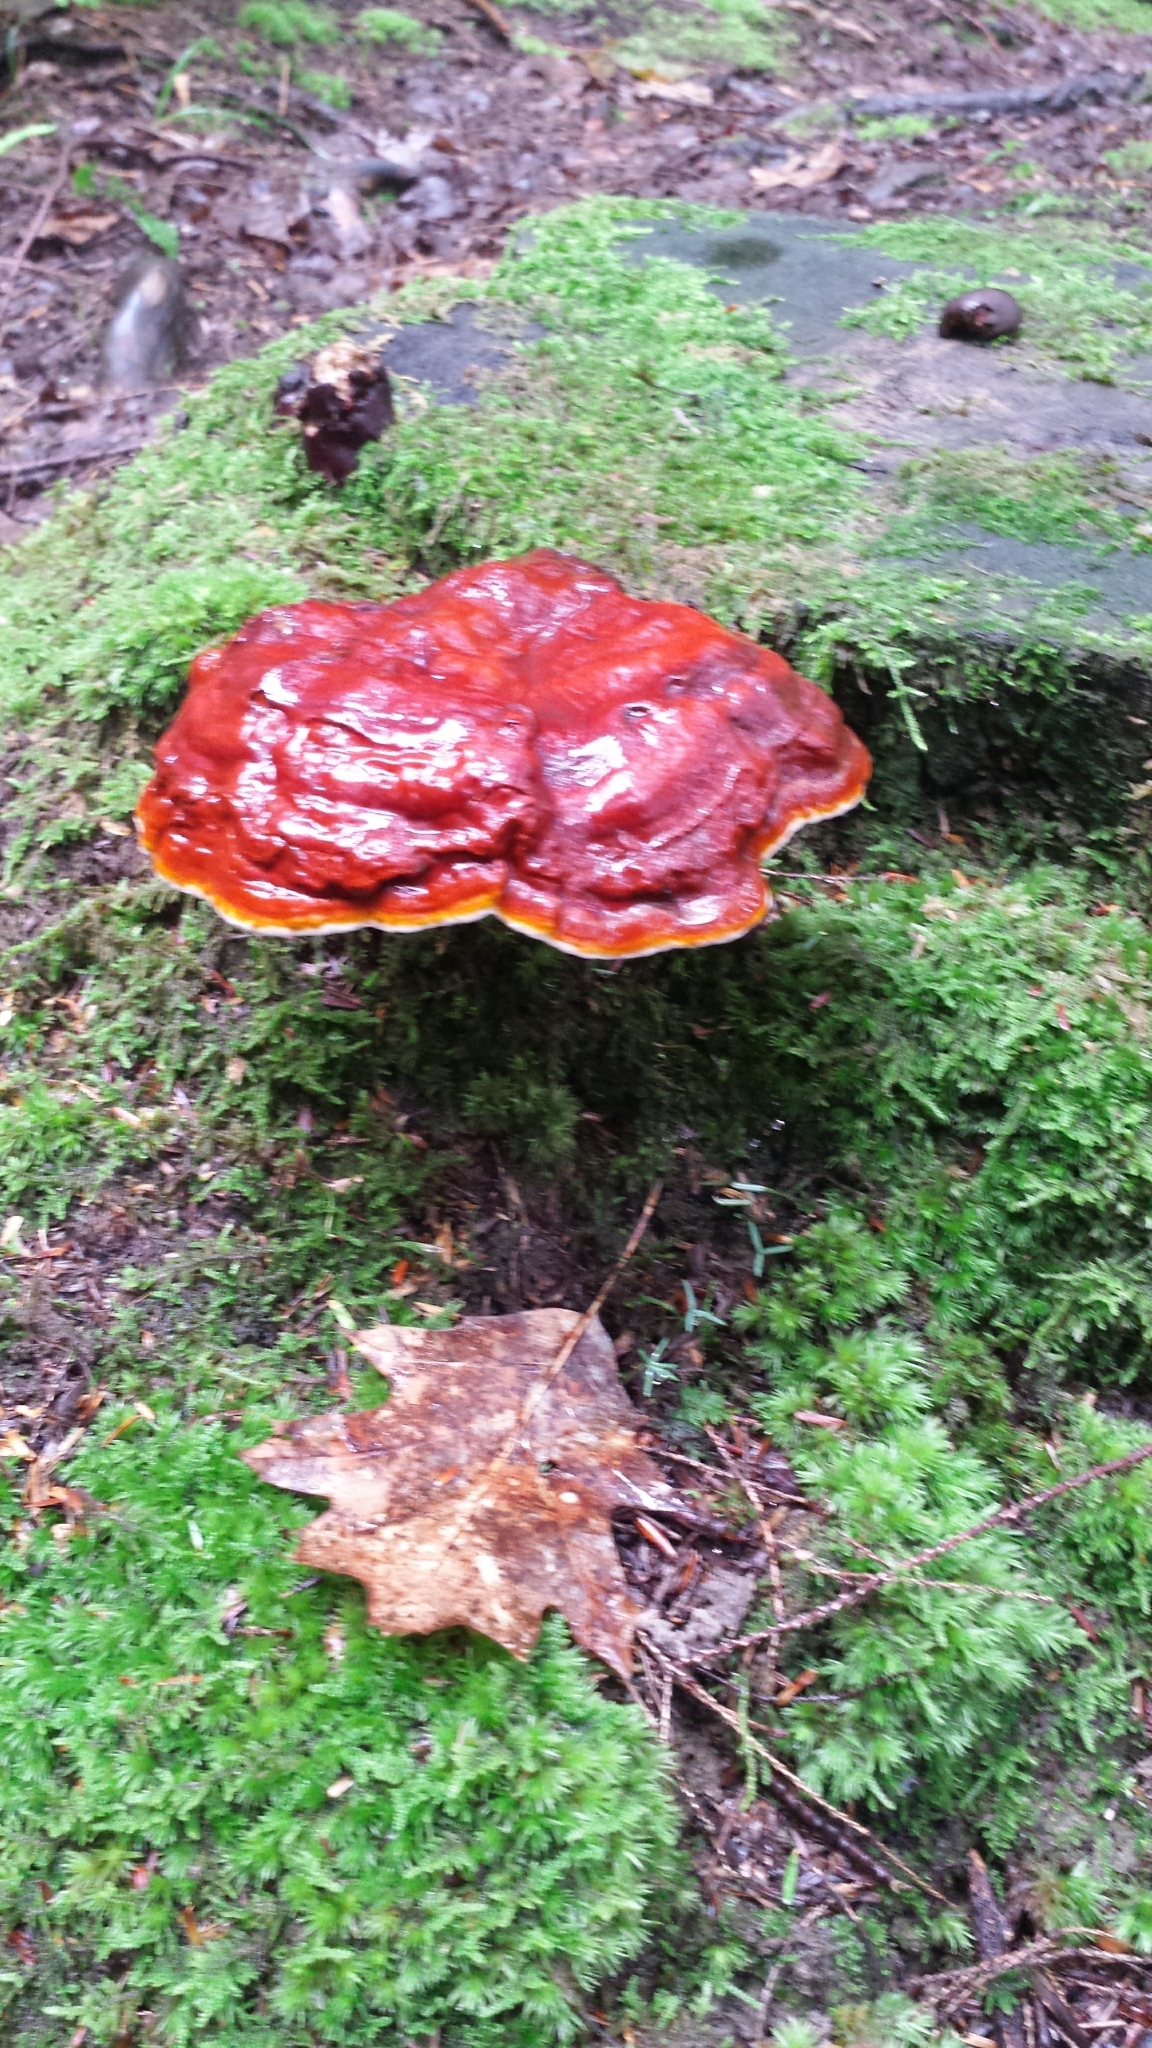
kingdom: Fungi
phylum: Basidiomycota
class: Agaricomycetes
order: Polyporales
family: Polyporaceae
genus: Ganoderma
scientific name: Ganoderma tsugae
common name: Hemlock varnish shelf
